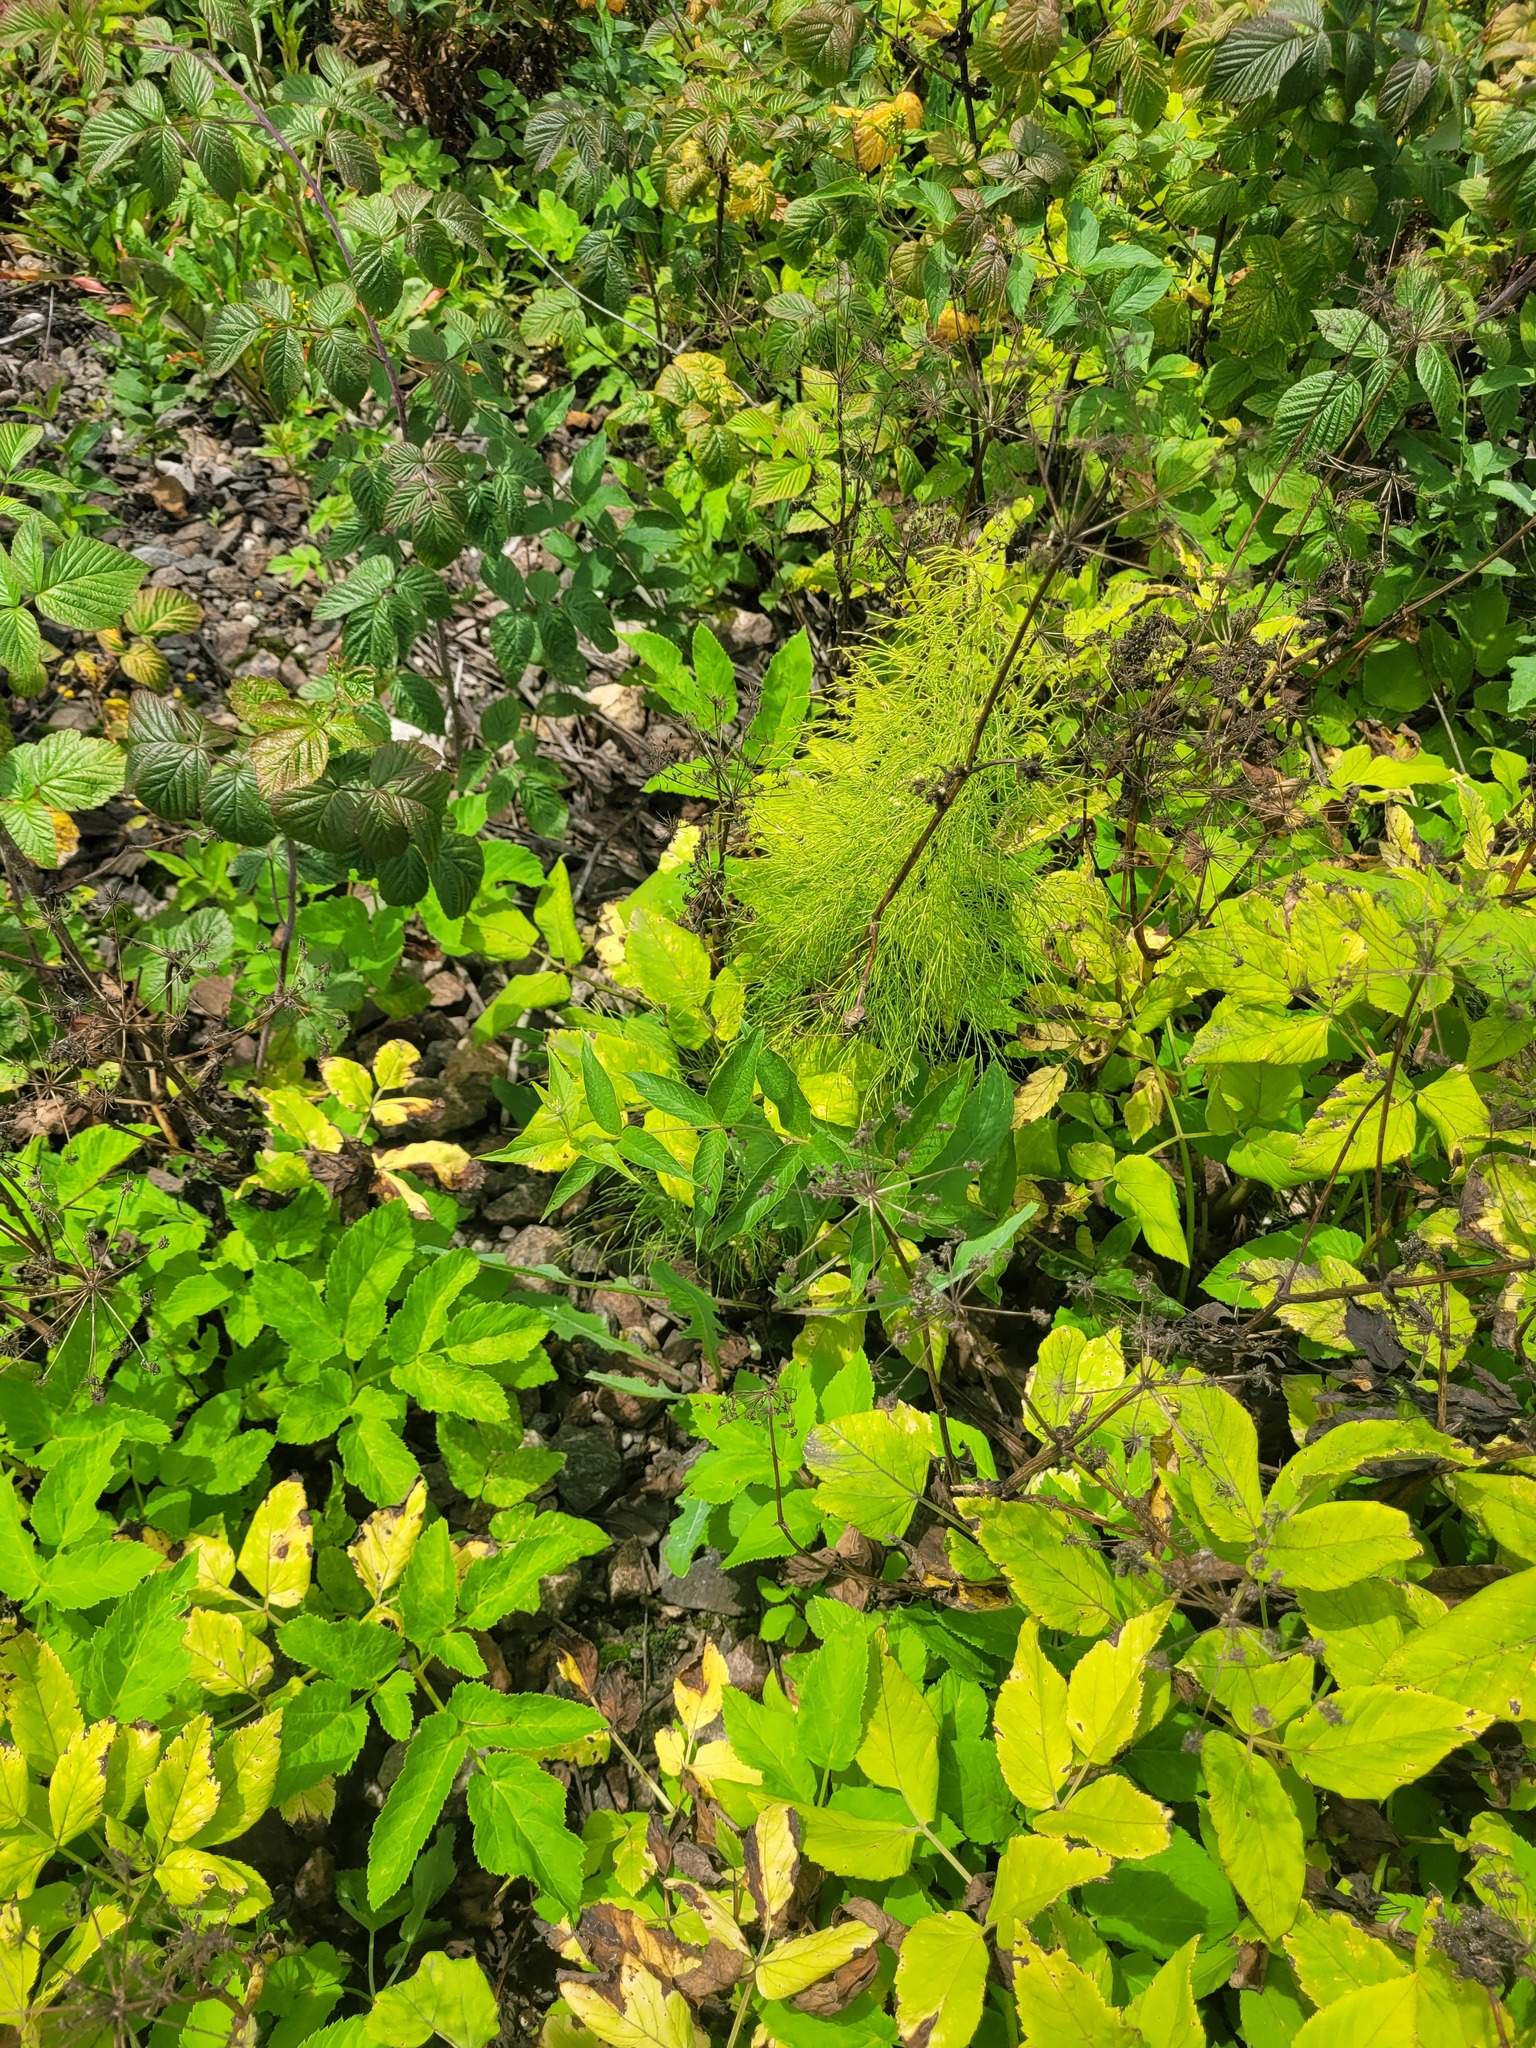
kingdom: Plantae
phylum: Tracheophyta
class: Magnoliopsida
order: Ericales
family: Primulaceae
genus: Lysimachia
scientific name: Lysimachia vulgaris
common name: Yellow loosestrife
